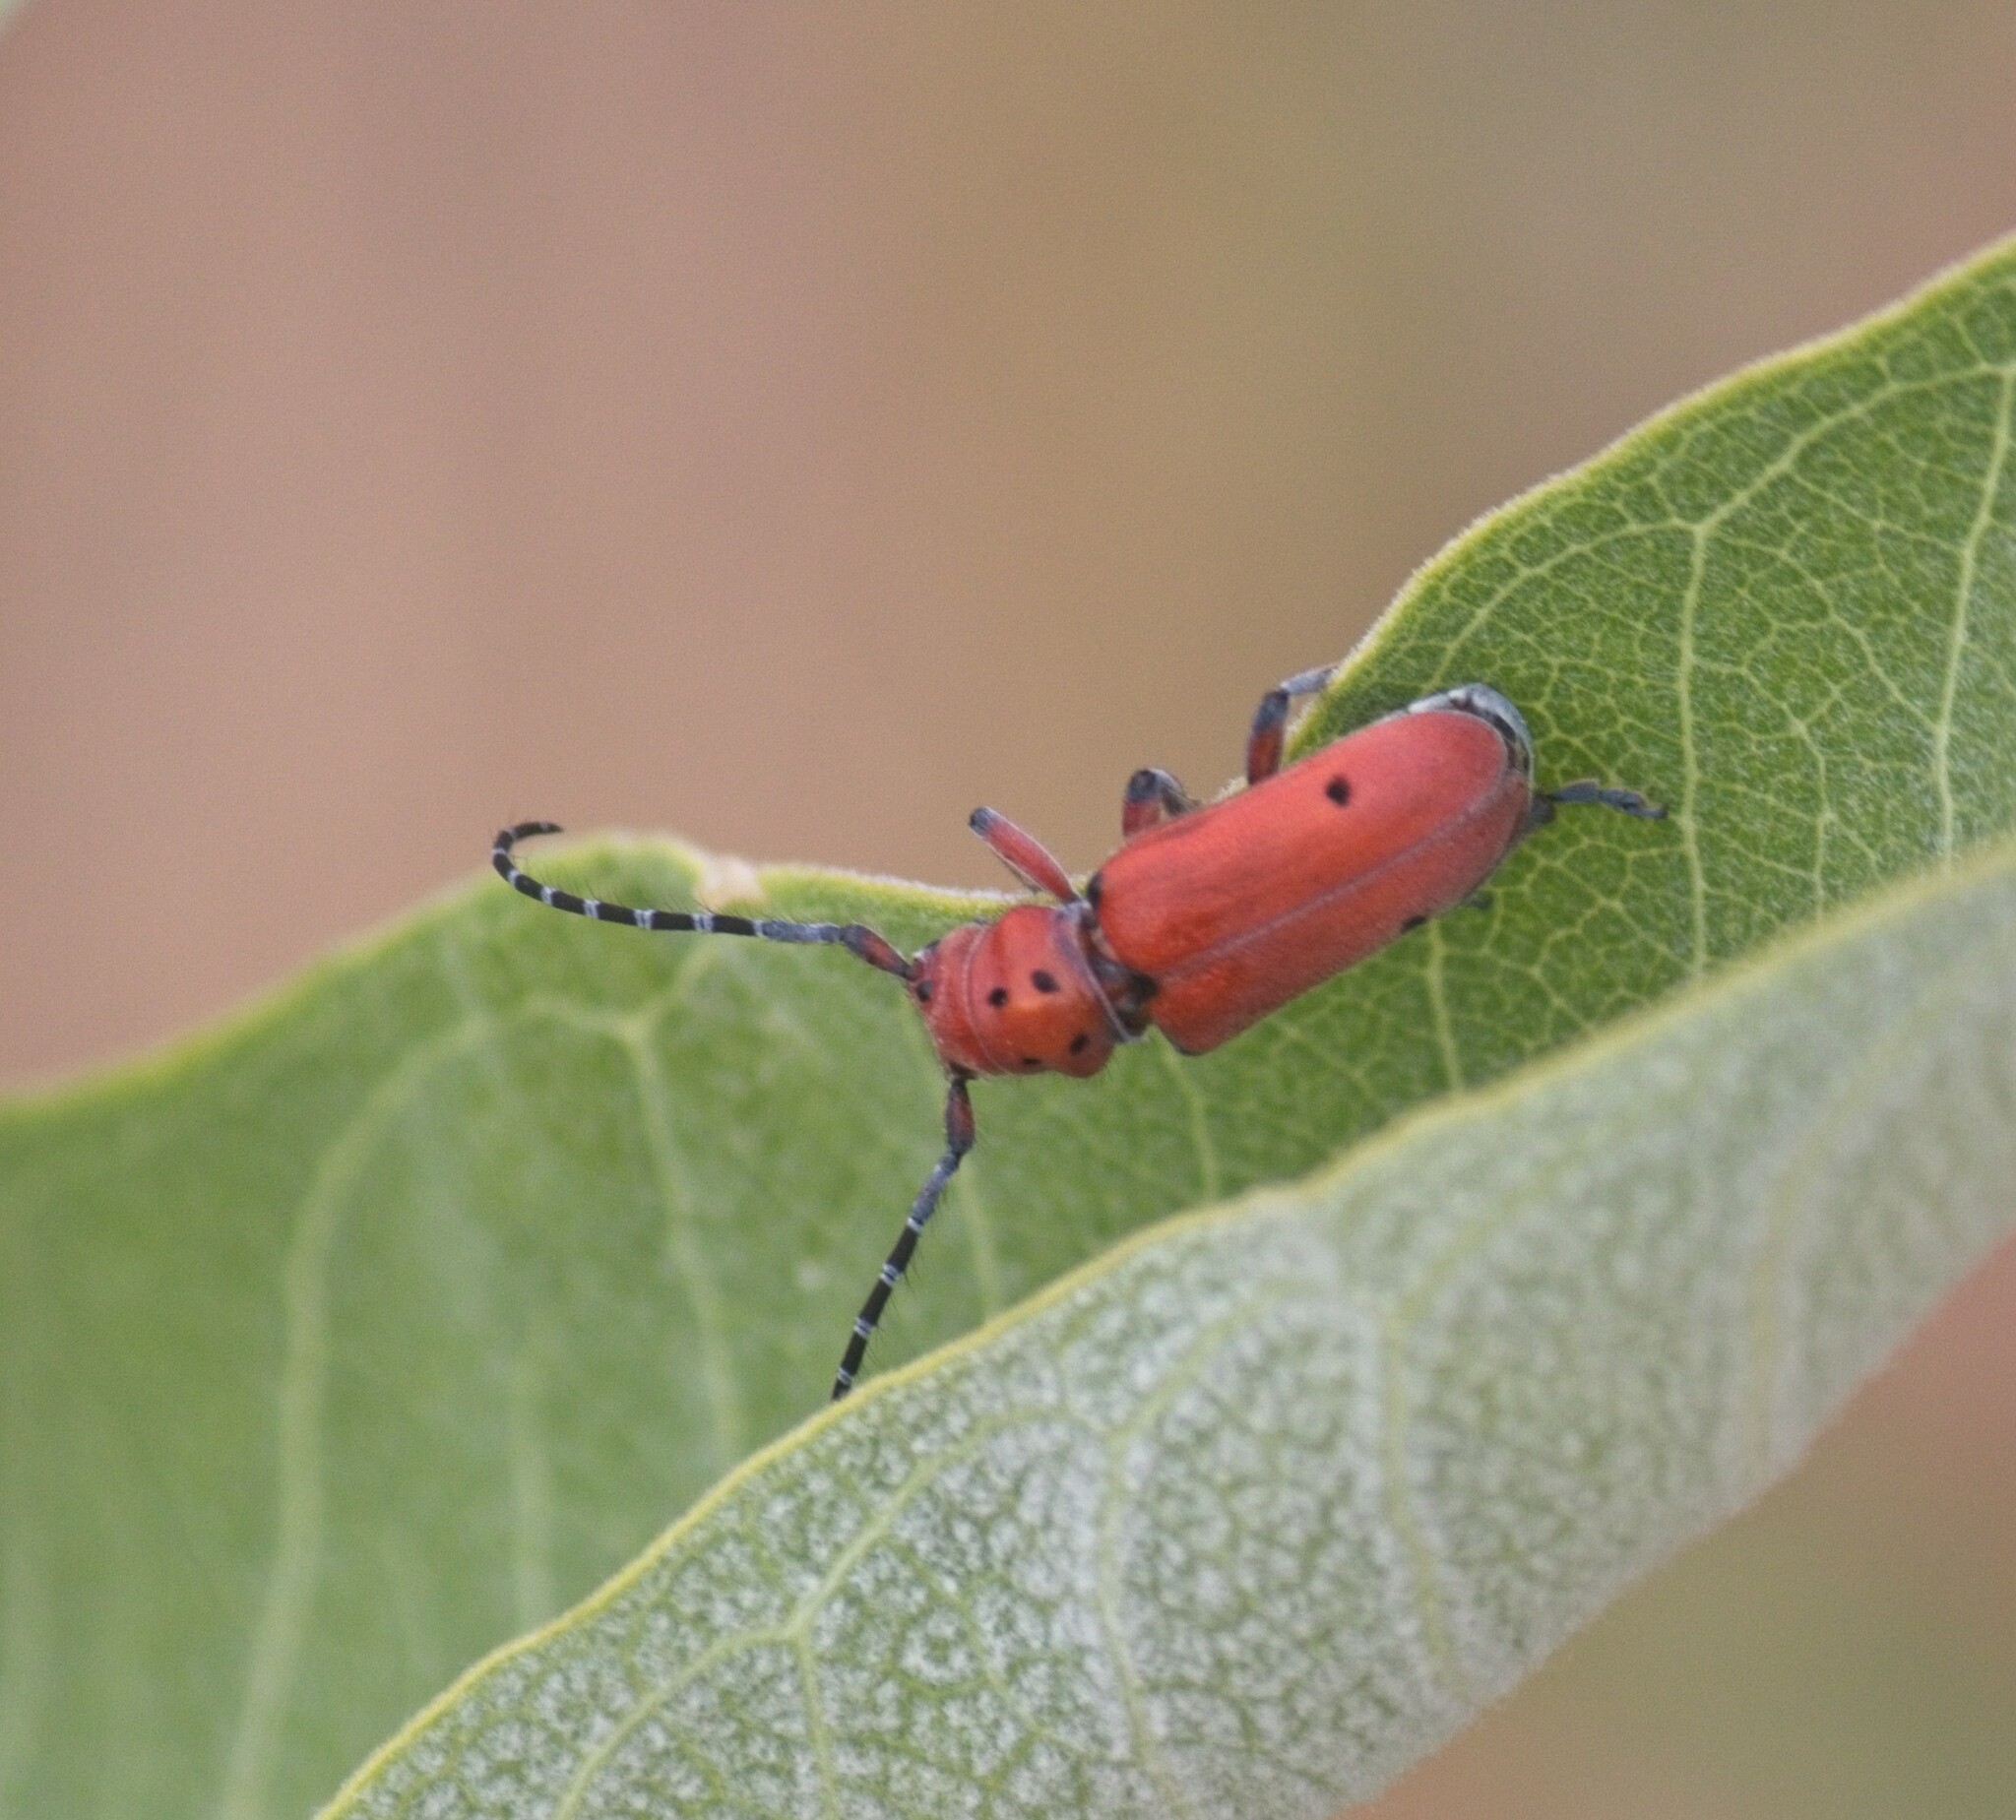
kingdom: Animalia
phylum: Arthropoda
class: Insecta
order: Coleoptera
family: Cerambycidae
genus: Tetraopes
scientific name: Tetraopes femoratus
